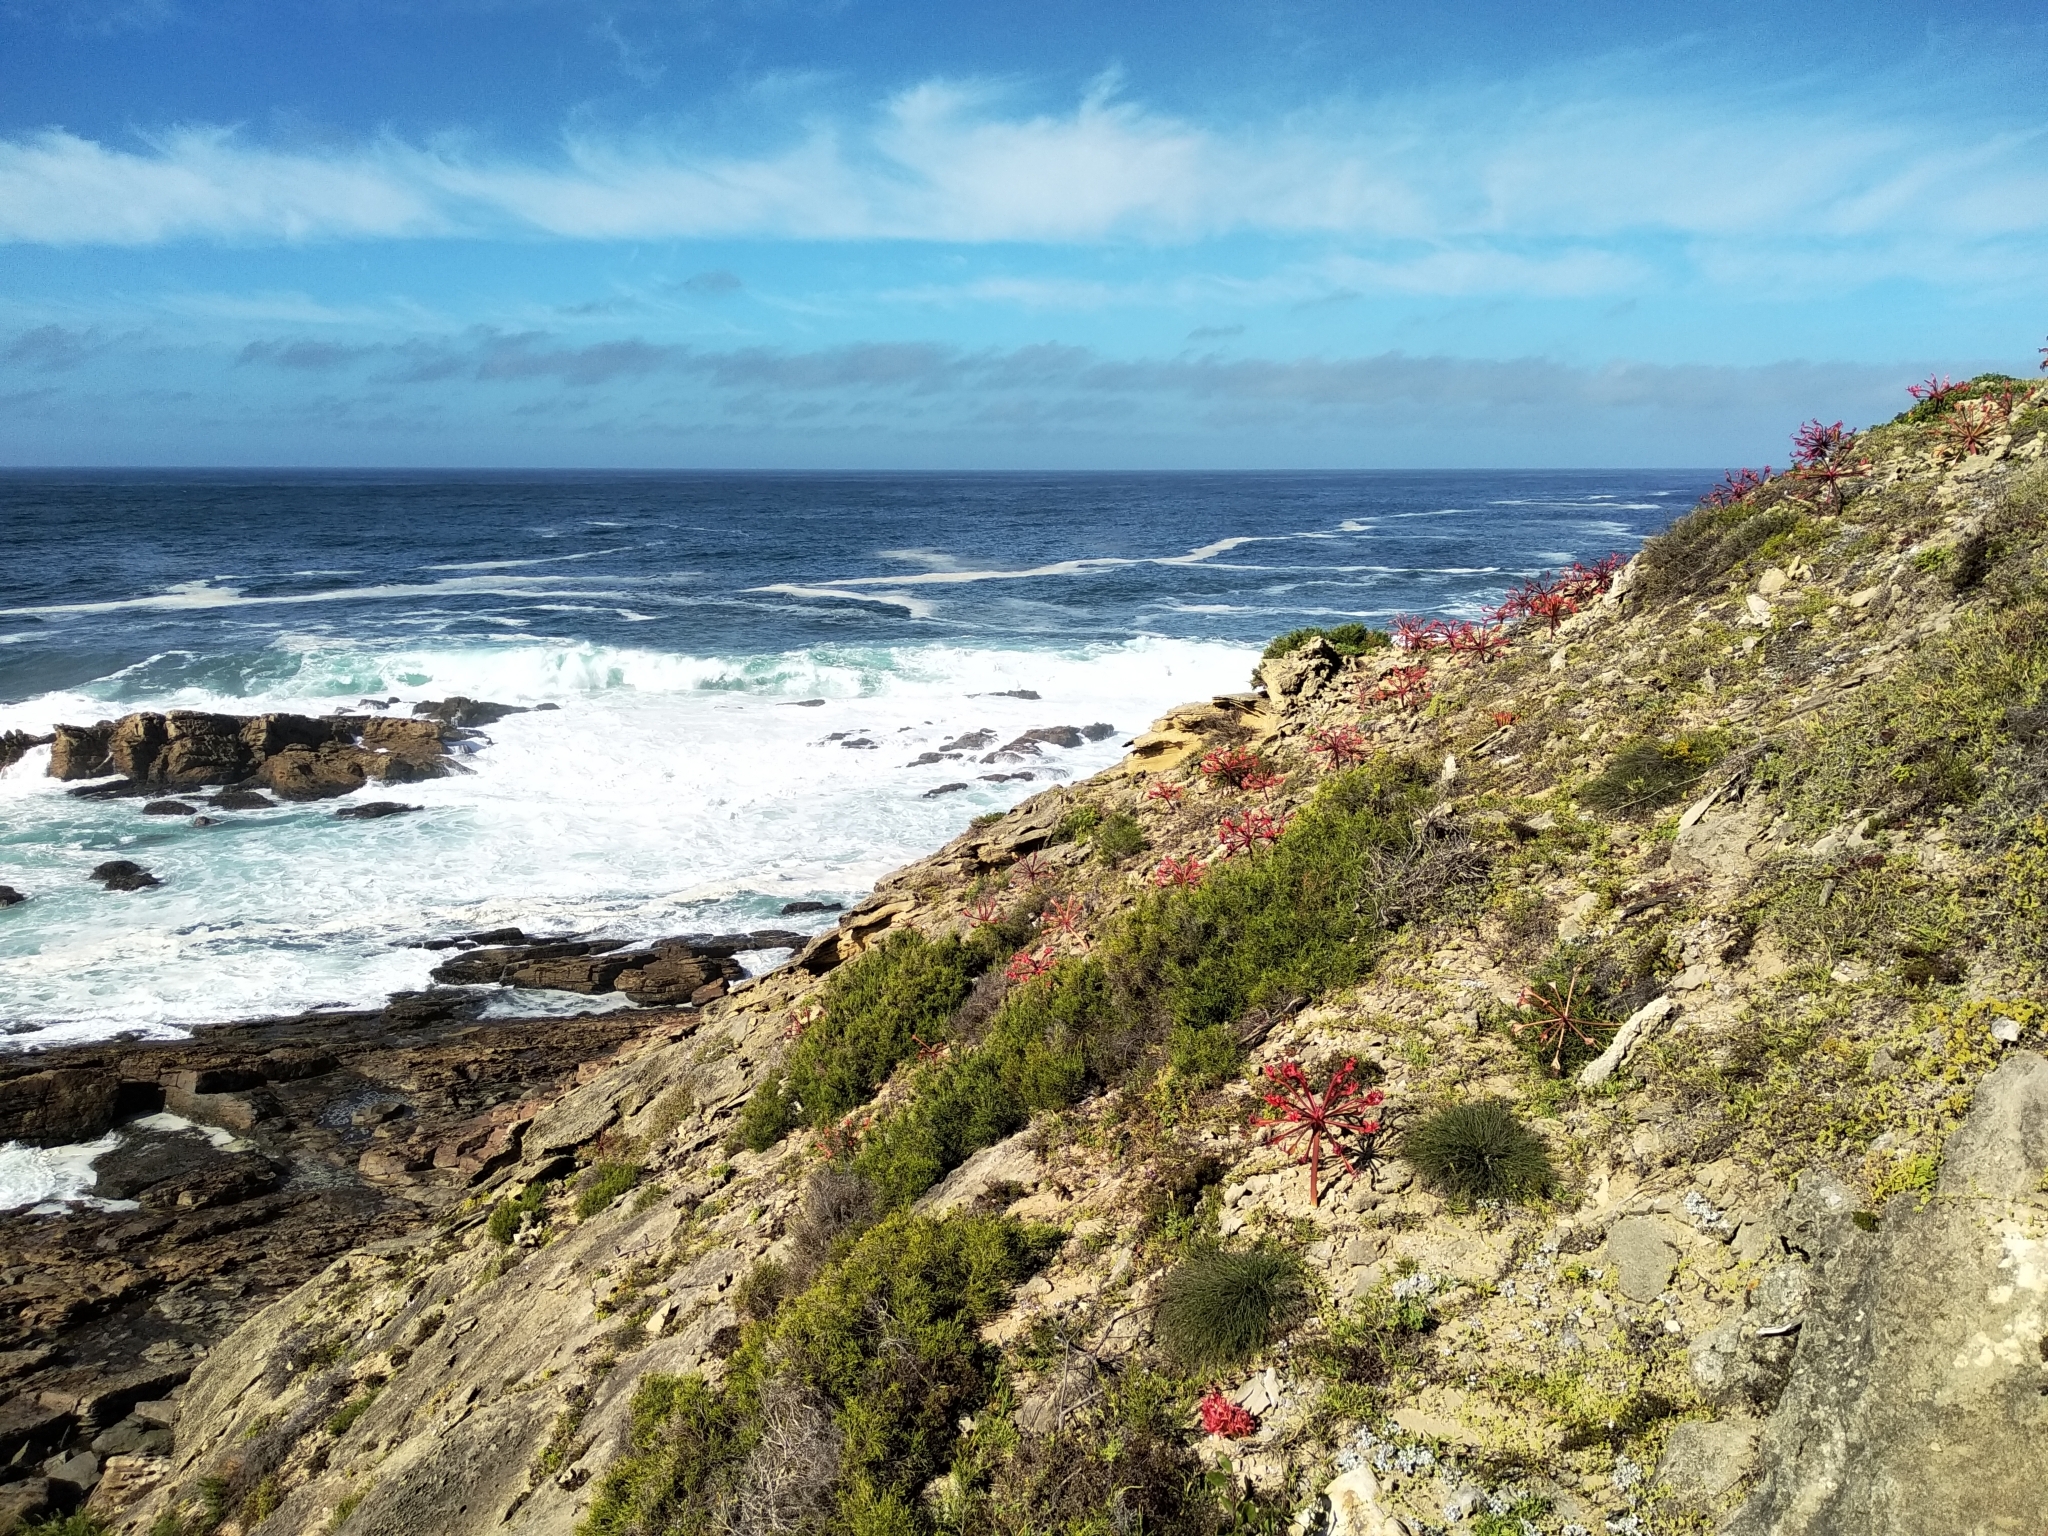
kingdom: Plantae
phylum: Tracheophyta
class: Liliopsida
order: Asparagales
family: Amaryllidaceae
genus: Brunsvigia
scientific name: Brunsvigia orientalis
